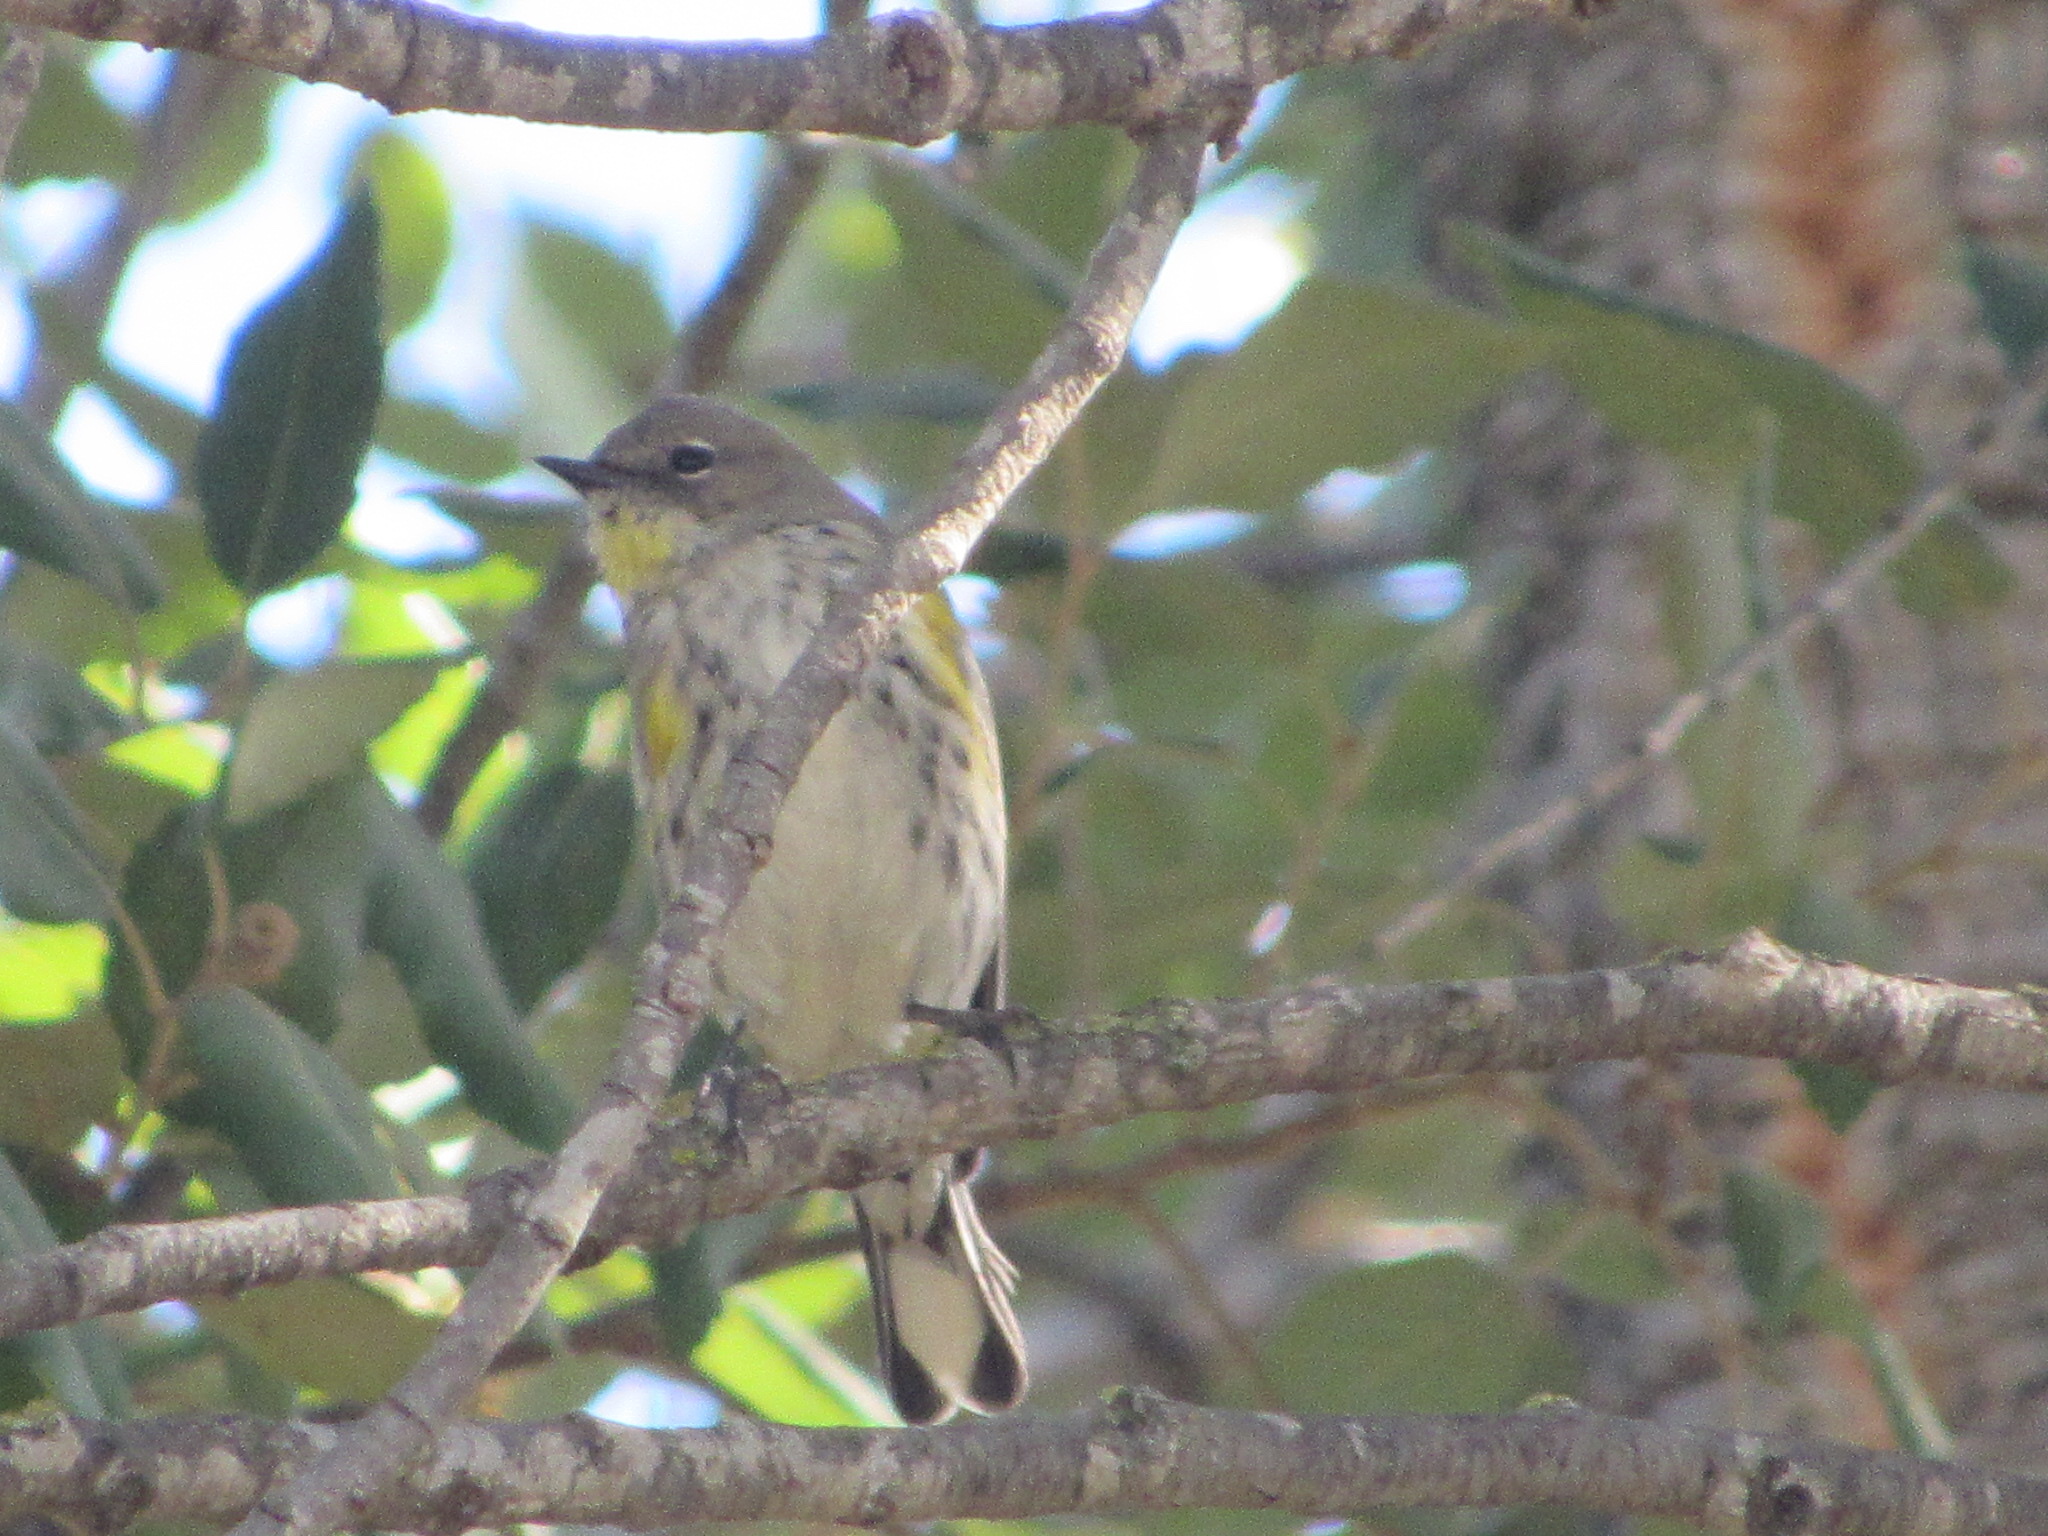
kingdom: Animalia
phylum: Chordata
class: Aves
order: Passeriformes
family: Parulidae
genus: Setophaga
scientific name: Setophaga coronata
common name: Myrtle warbler
